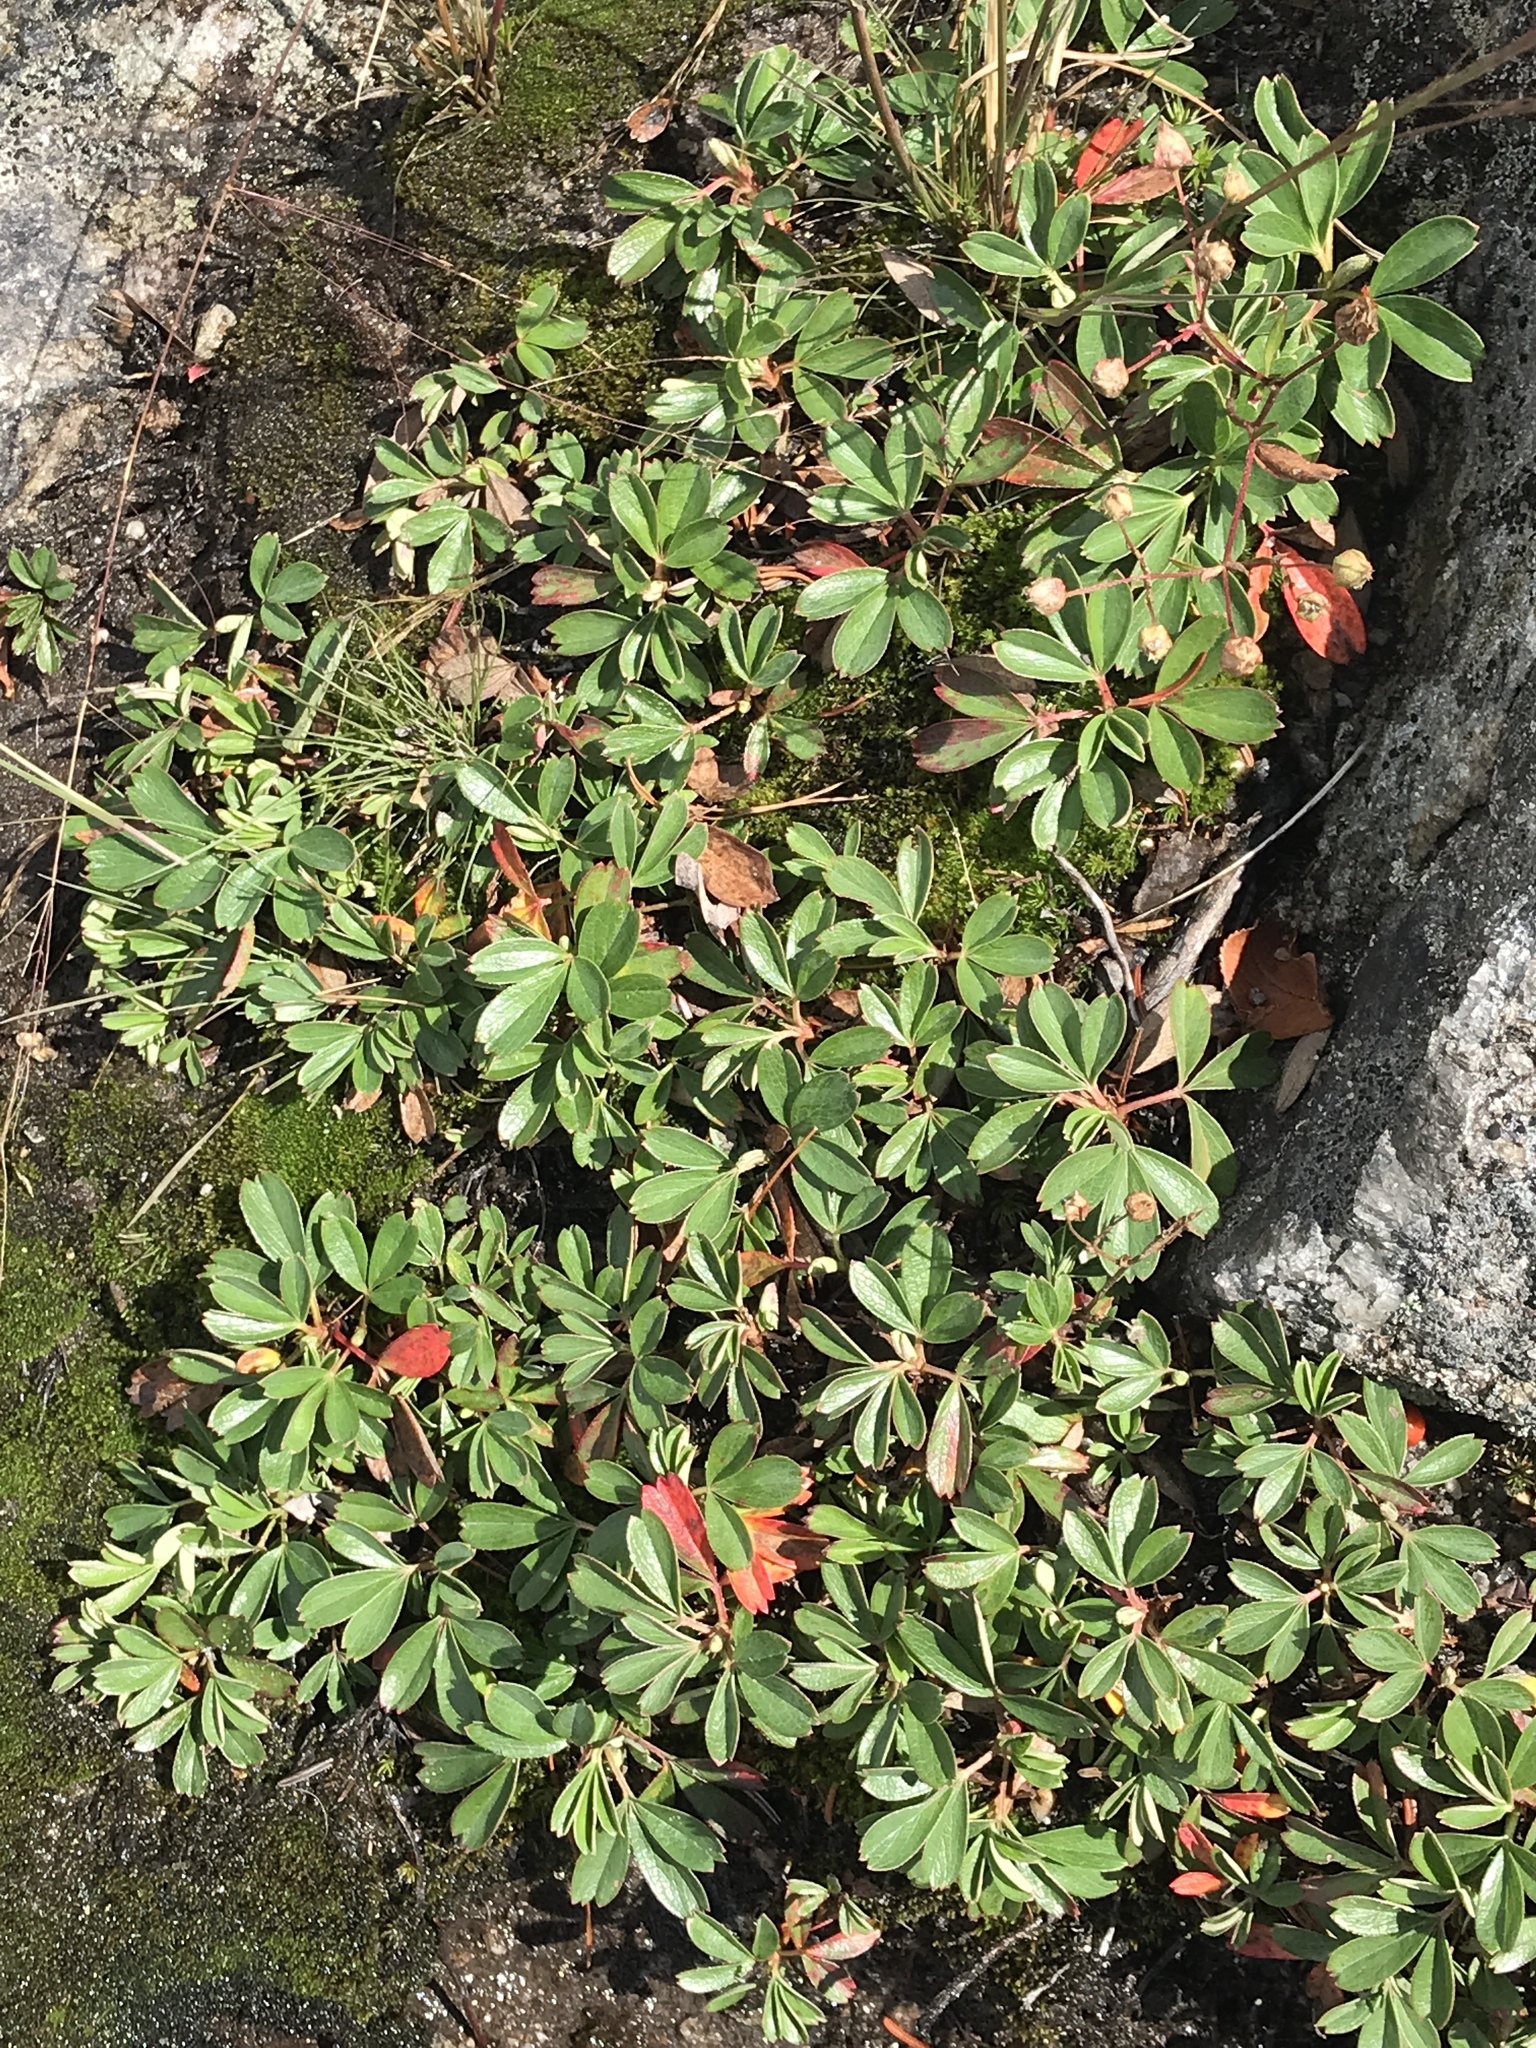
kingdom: Plantae
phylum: Tracheophyta
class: Magnoliopsida
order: Rosales
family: Rosaceae
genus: Sibbaldia
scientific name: Sibbaldia tridentata
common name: Three-toothed cinquefoil
